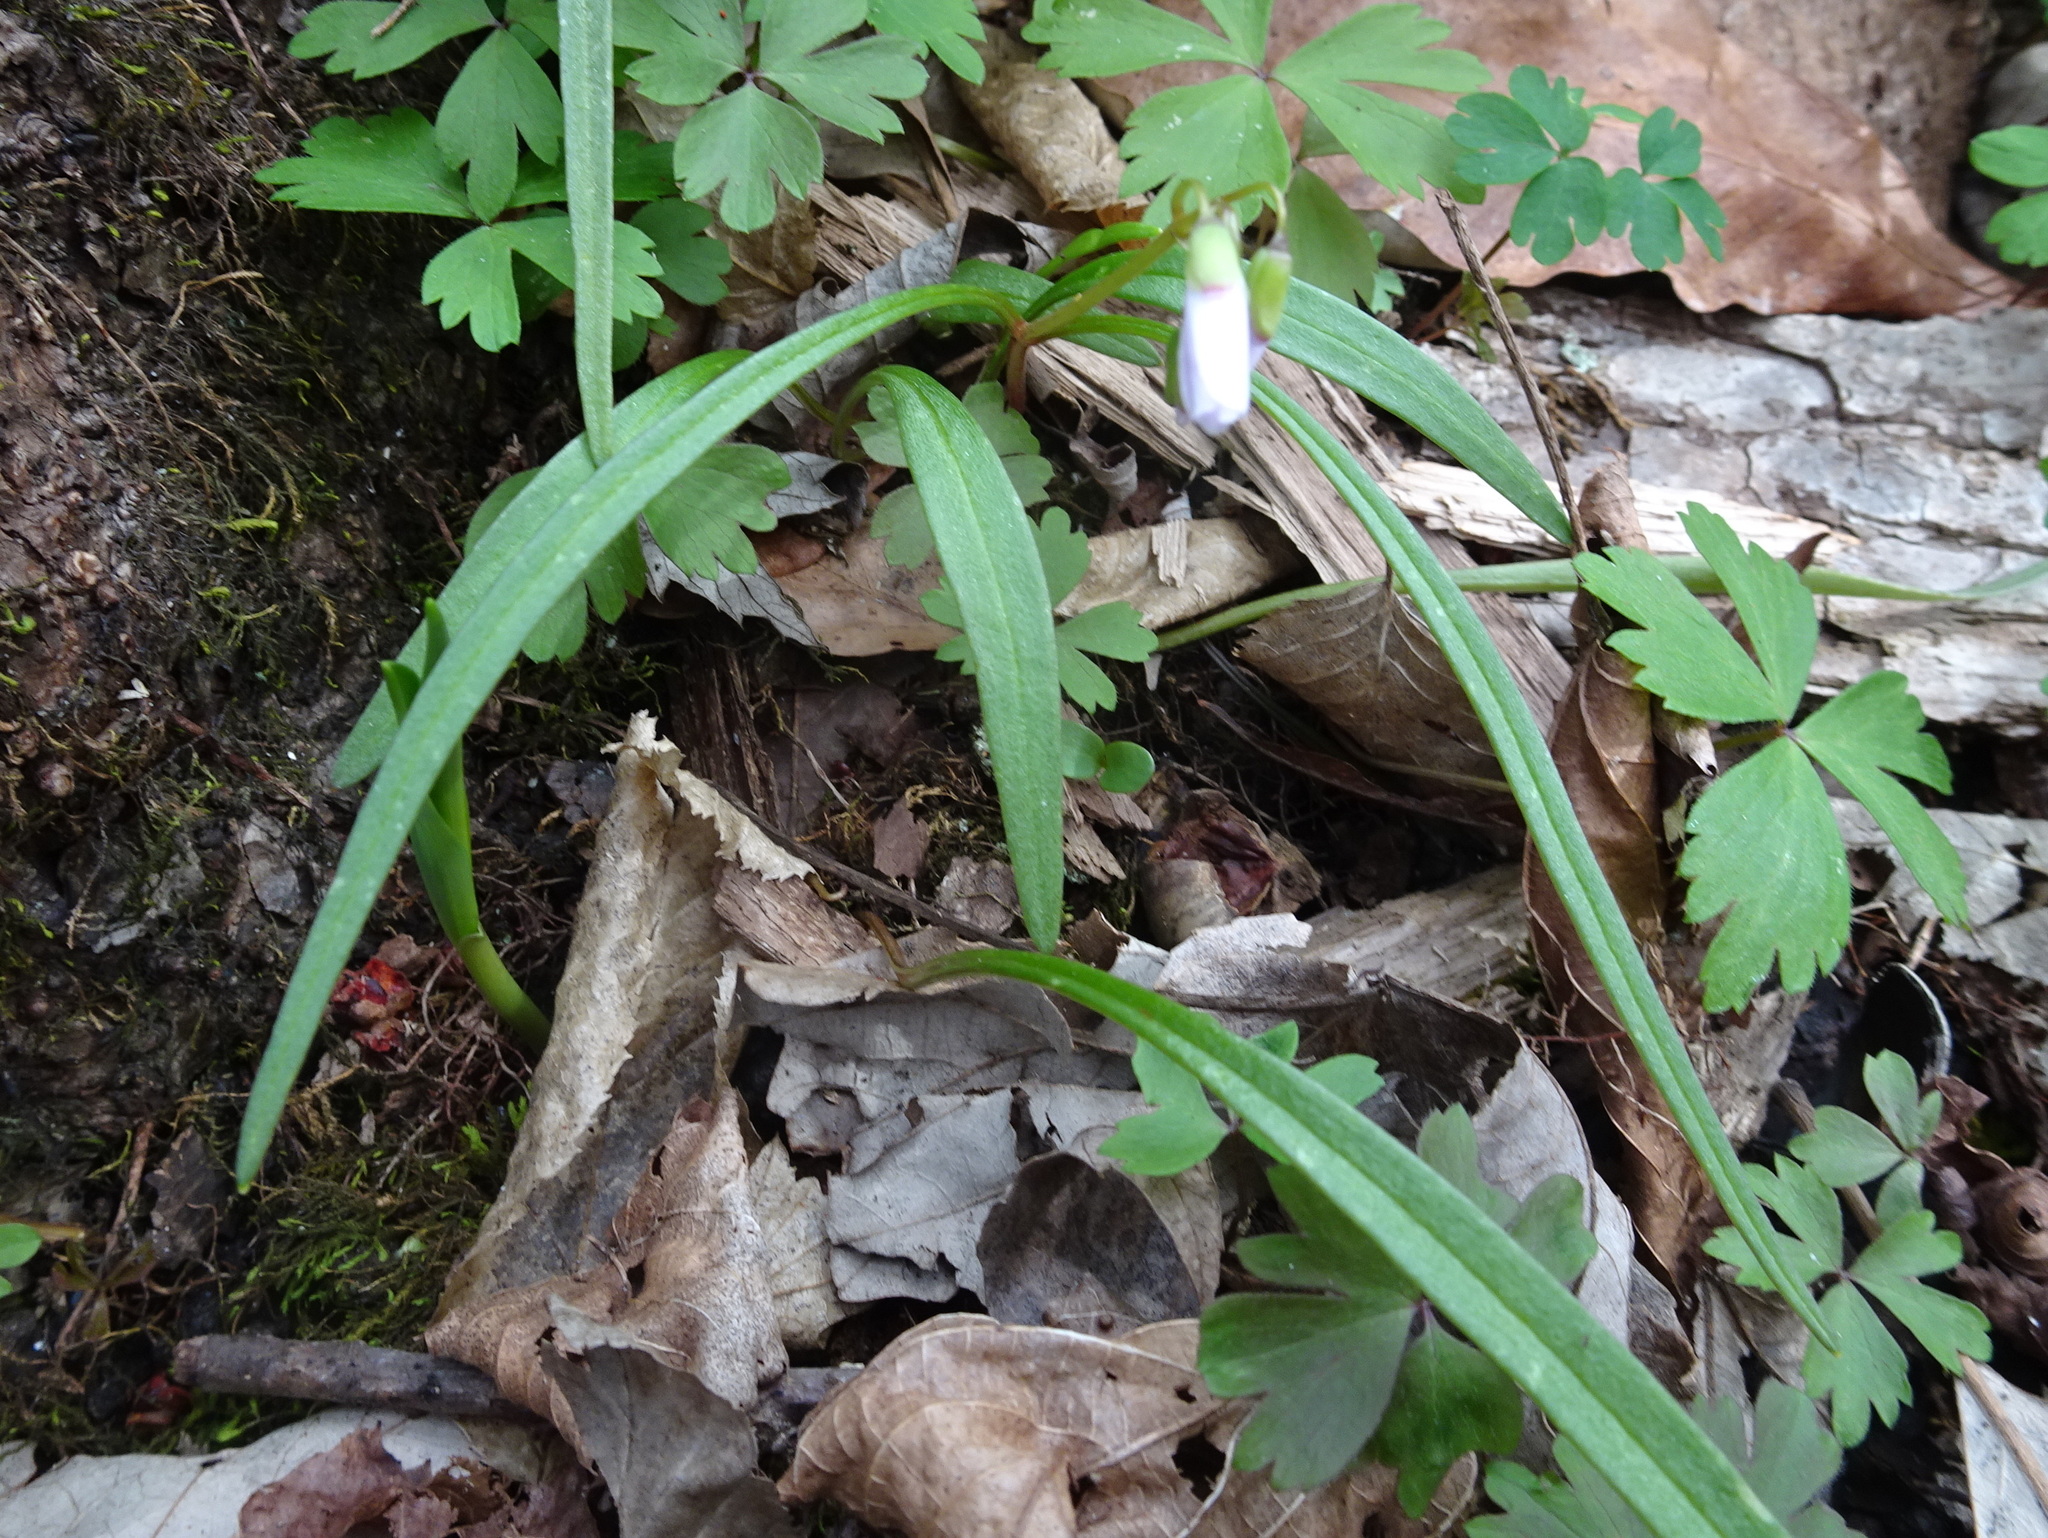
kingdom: Plantae
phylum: Tracheophyta
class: Magnoliopsida
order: Caryophyllales
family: Montiaceae
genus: Claytonia
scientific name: Claytonia virginica
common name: Virginia springbeauty
